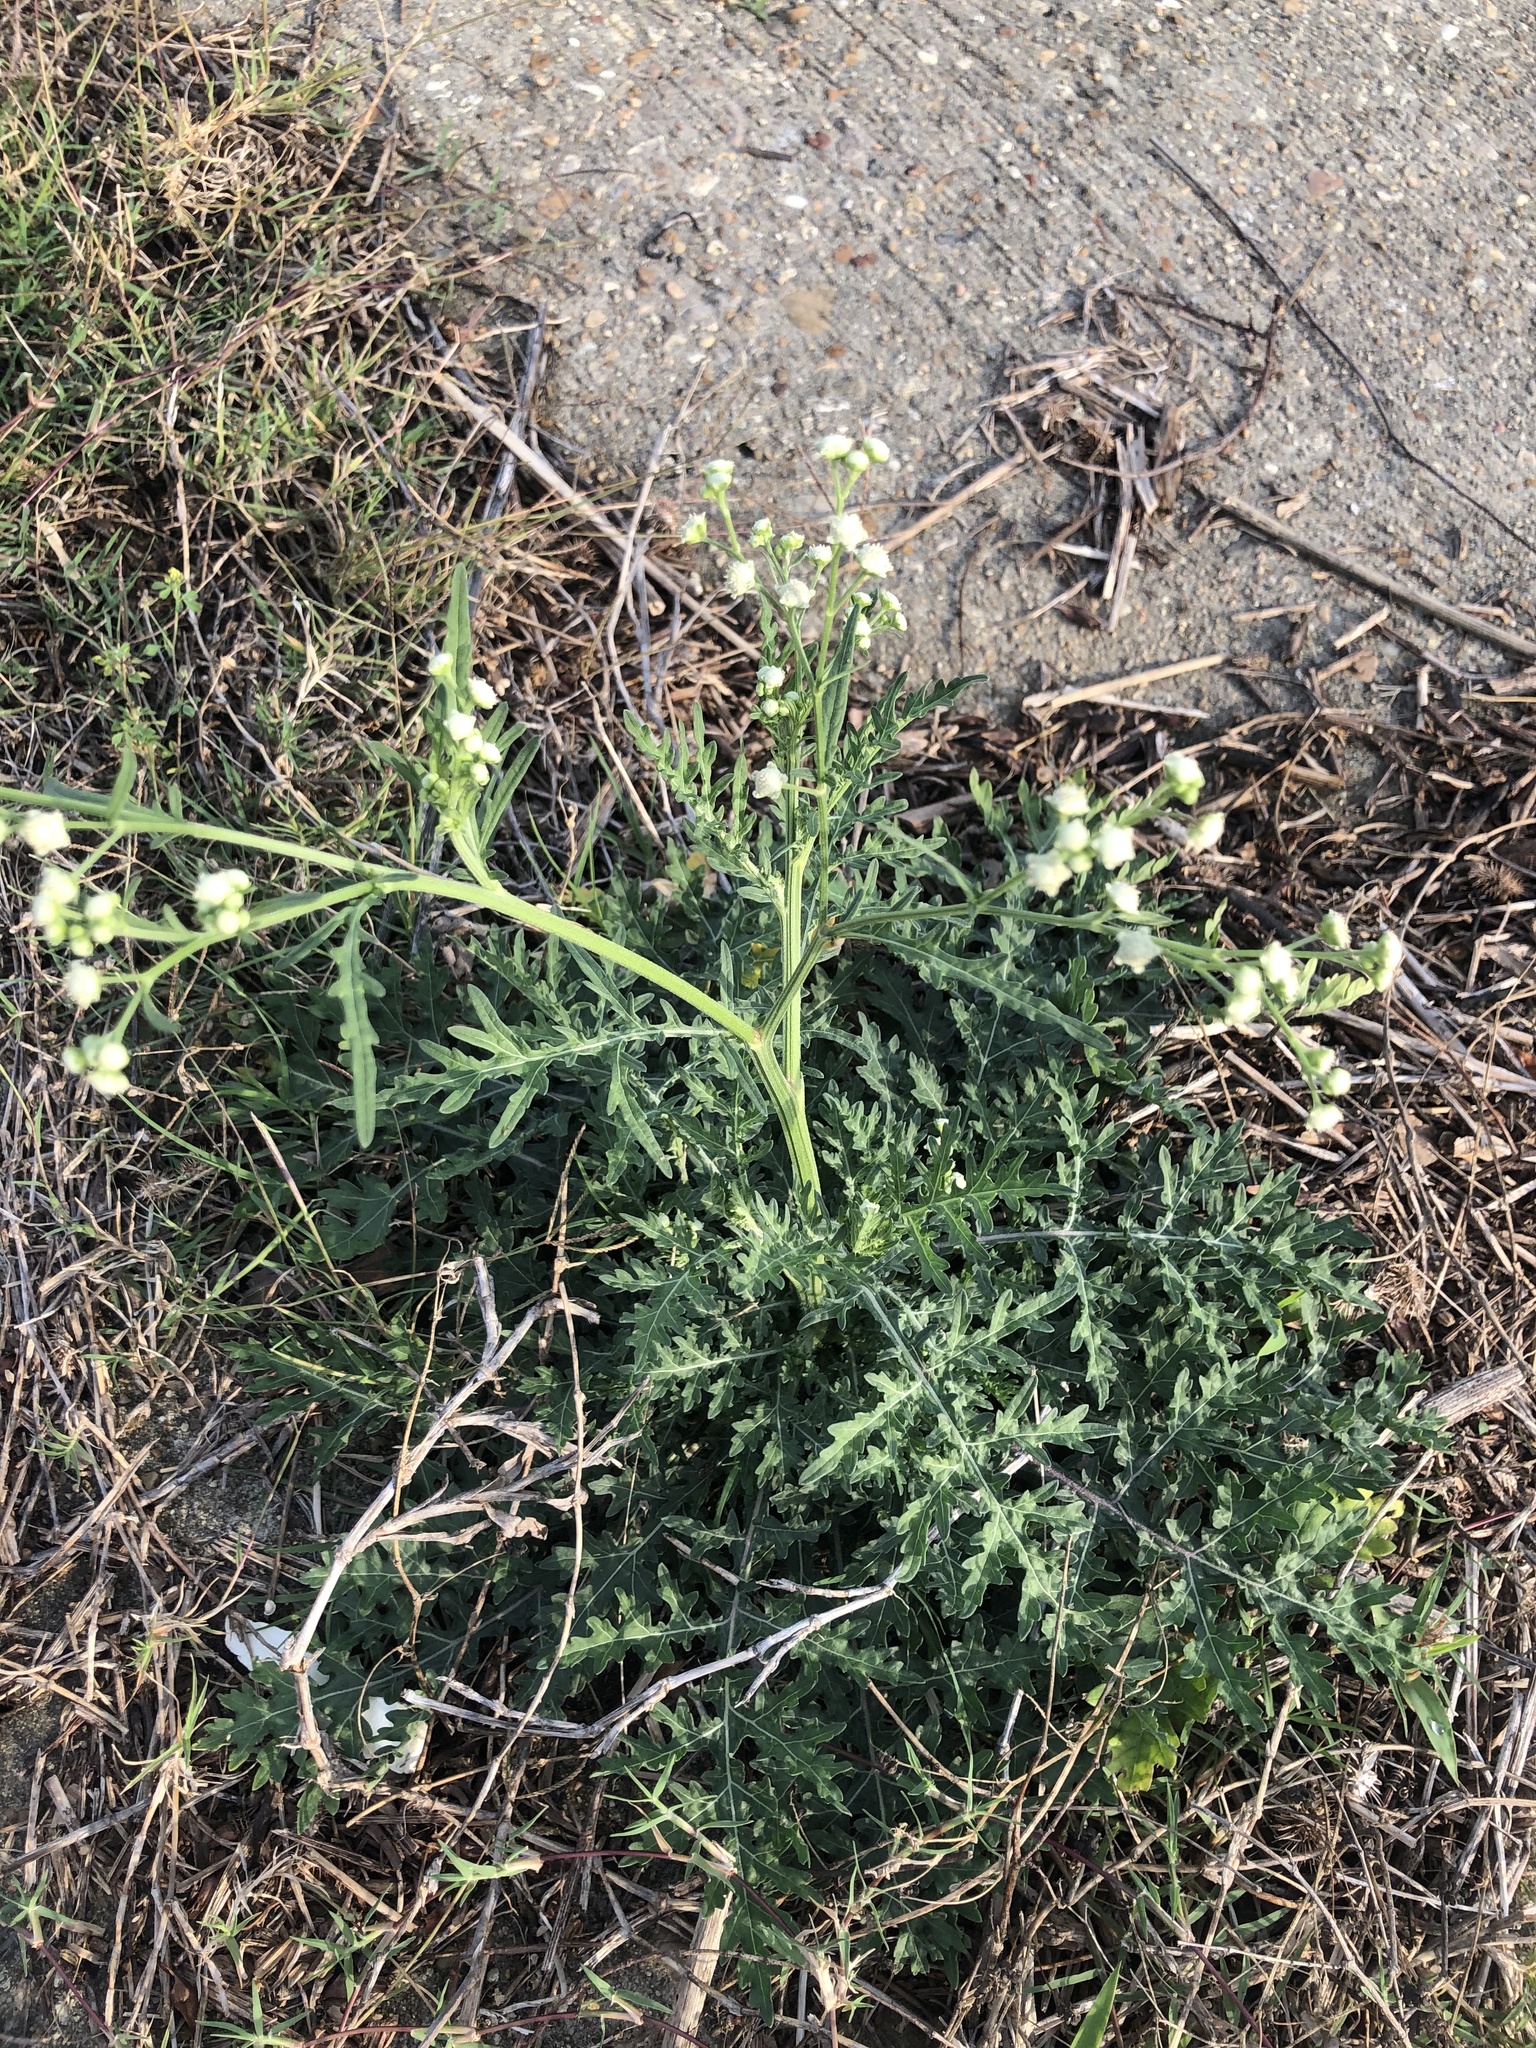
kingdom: Plantae
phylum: Tracheophyta
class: Magnoliopsida
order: Asterales
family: Asteraceae
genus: Parthenium
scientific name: Parthenium hysterophorus
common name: Santa maria feverfew
